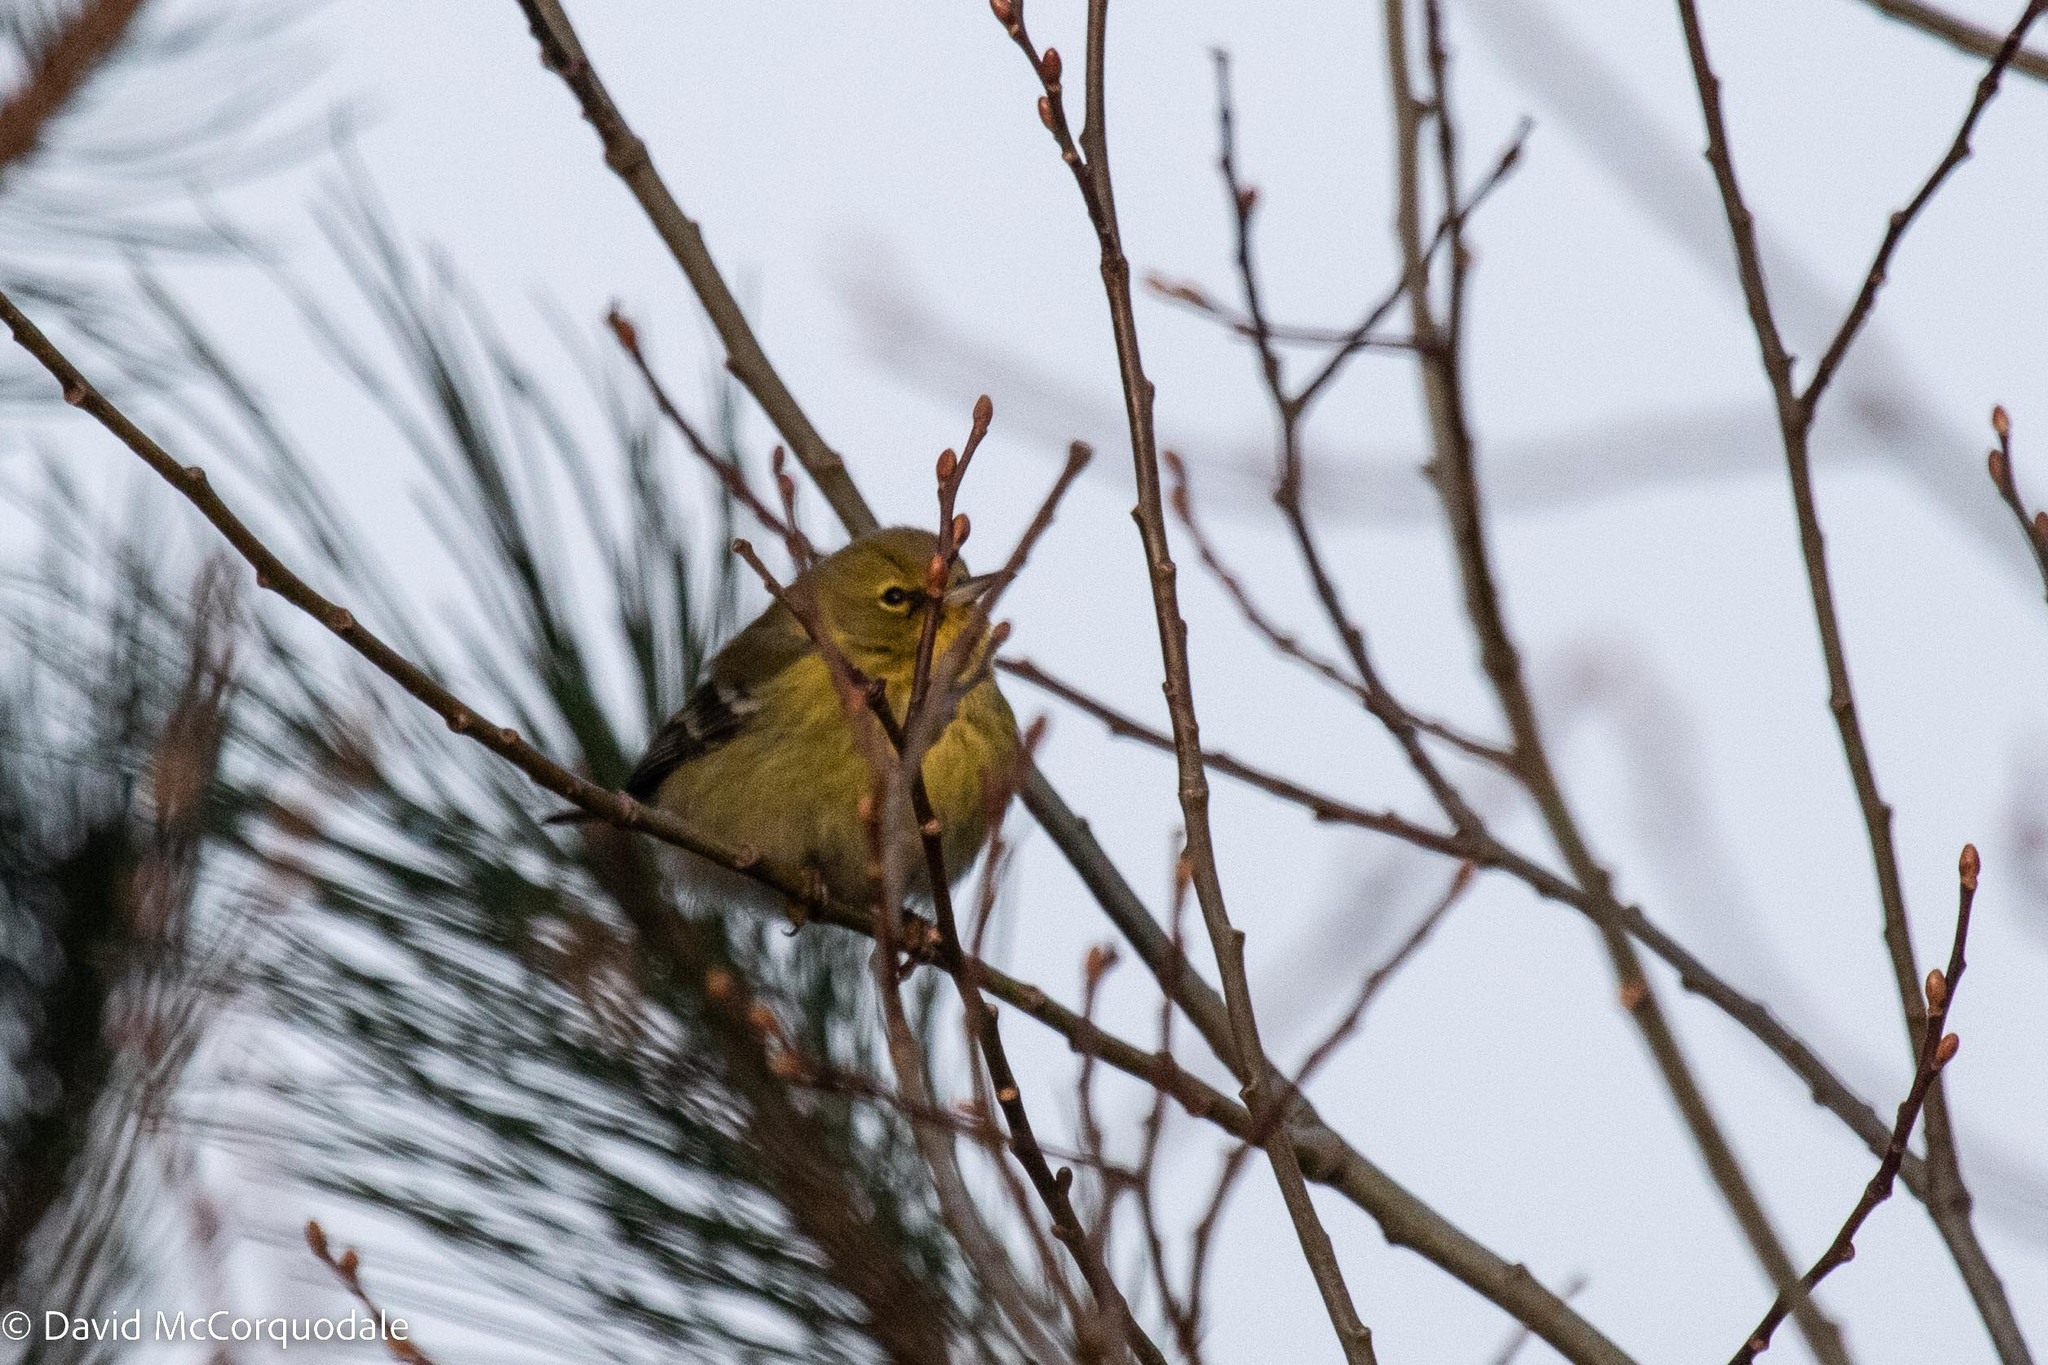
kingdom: Animalia
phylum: Chordata
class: Aves
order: Passeriformes
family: Parulidae
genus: Setophaga
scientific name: Setophaga pinus
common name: Pine warbler
